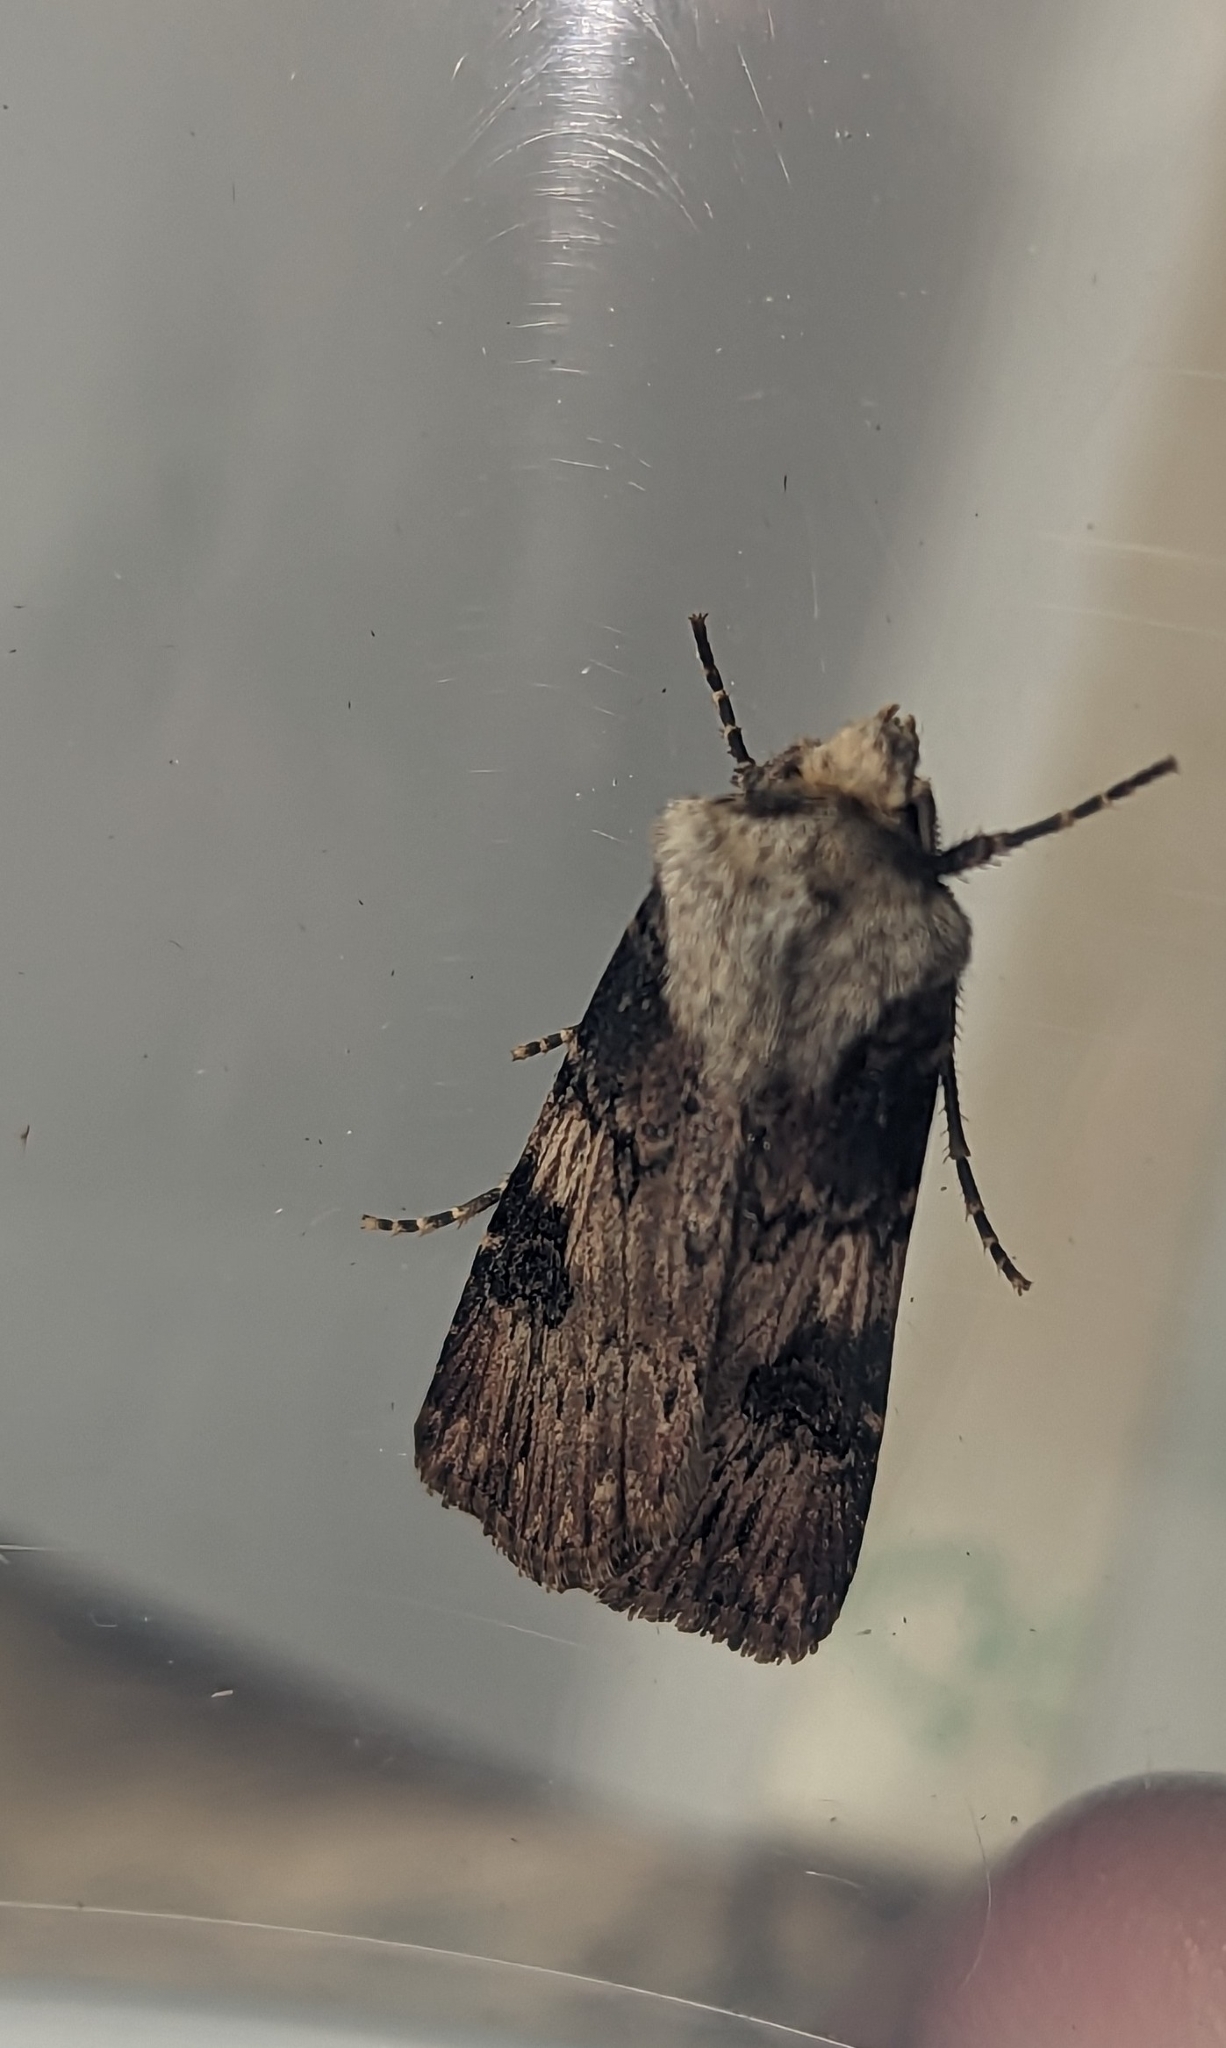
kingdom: Animalia
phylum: Arthropoda
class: Insecta
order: Lepidoptera
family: Noctuidae
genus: Agrotis
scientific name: Agrotis puta
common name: Shuttle-shaped dart
